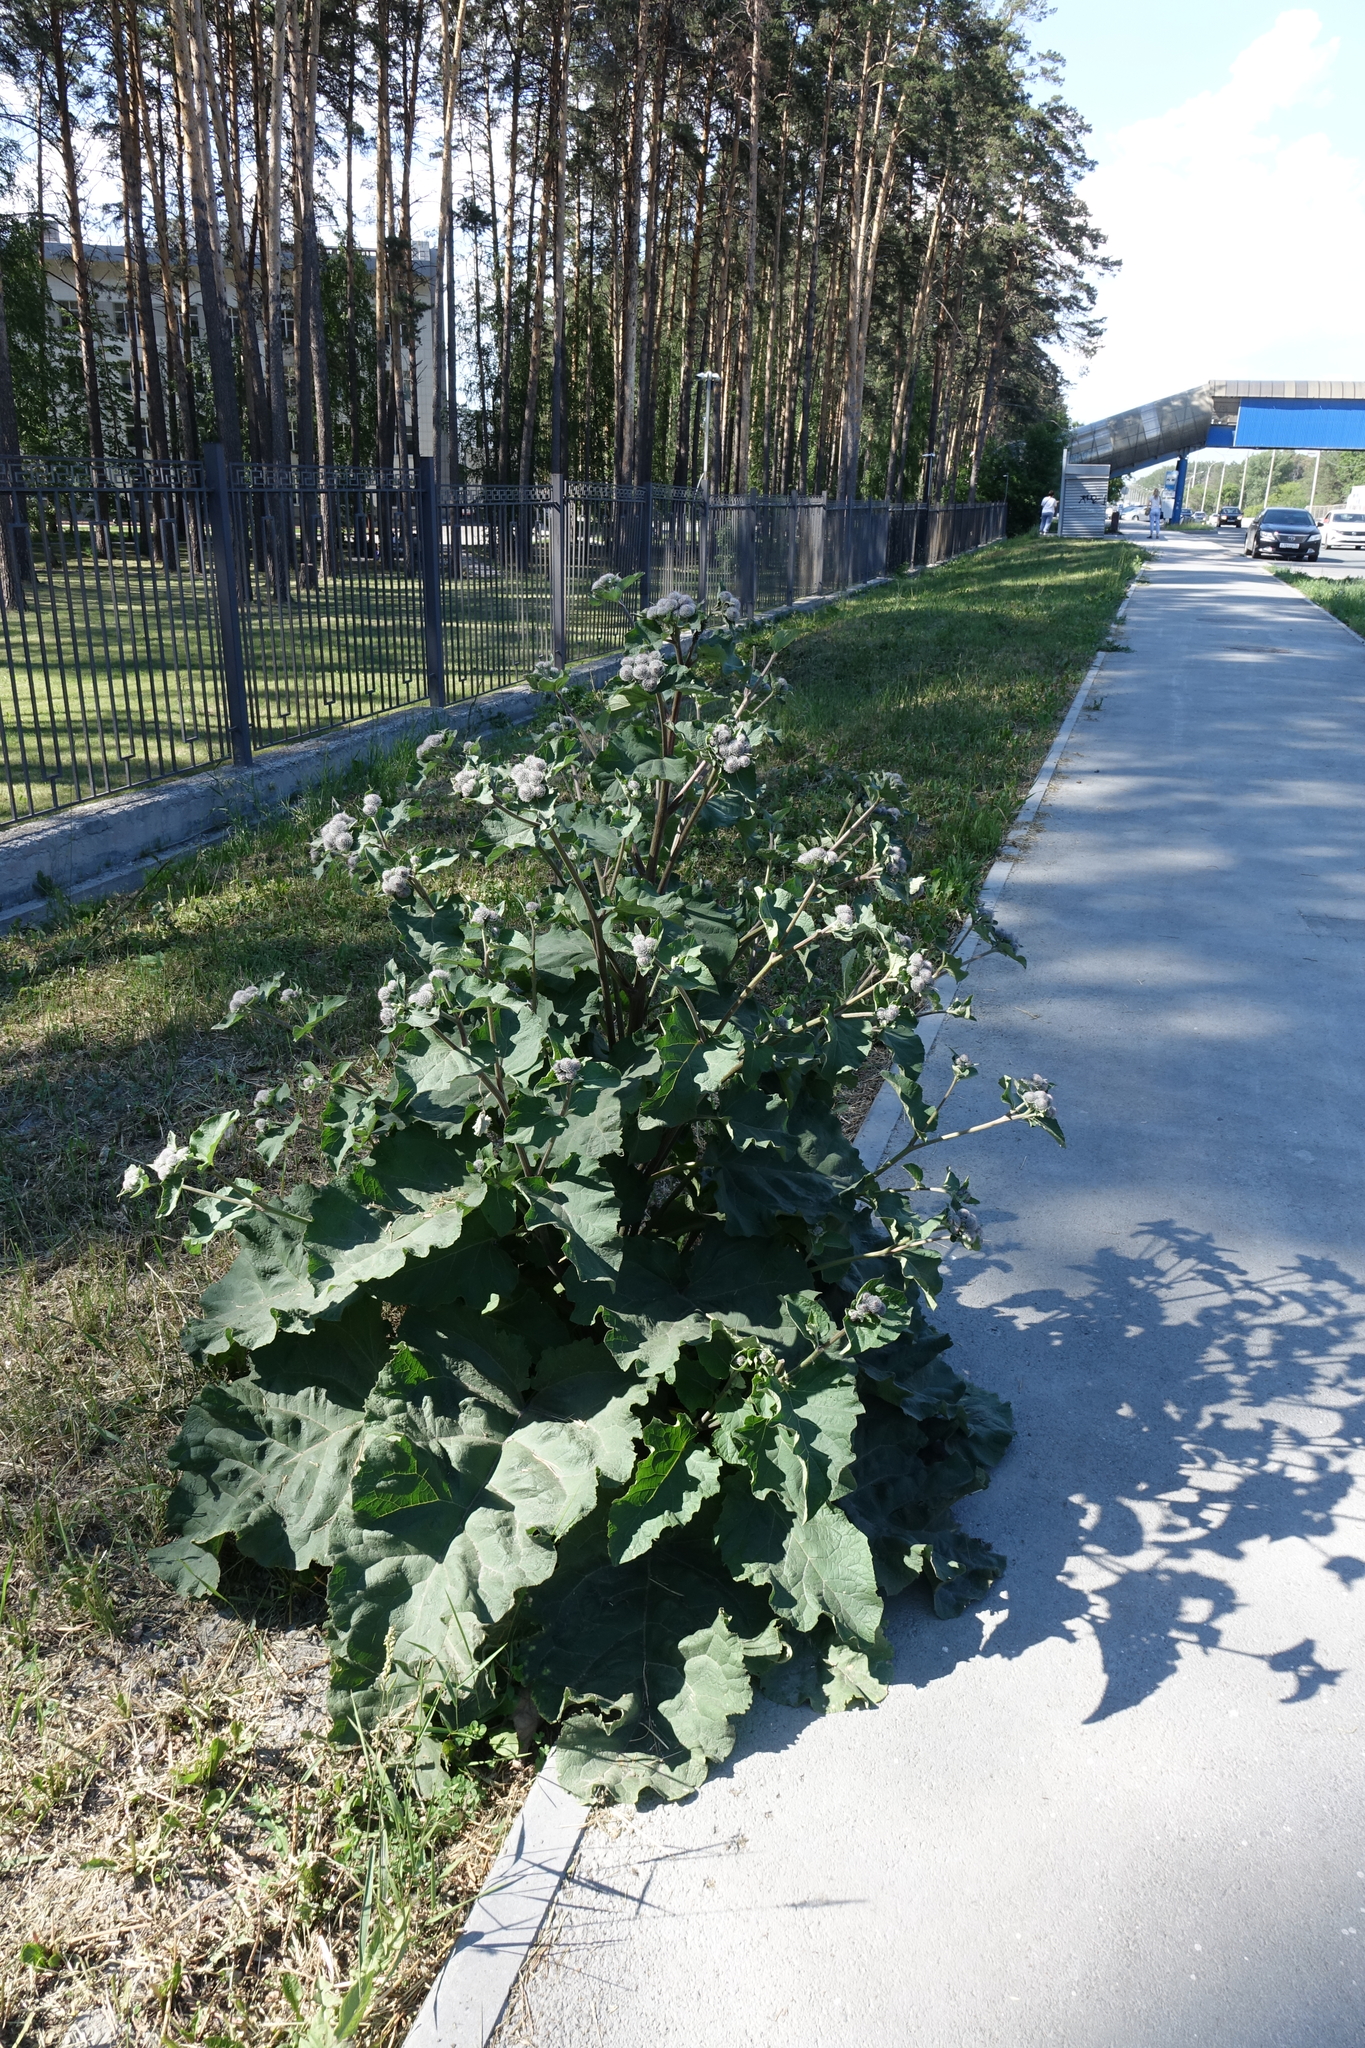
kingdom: Plantae
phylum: Tracheophyta
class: Magnoliopsida
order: Asterales
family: Asteraceae
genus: Arctium
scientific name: Arctium tomentosum
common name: Woolly burdock
